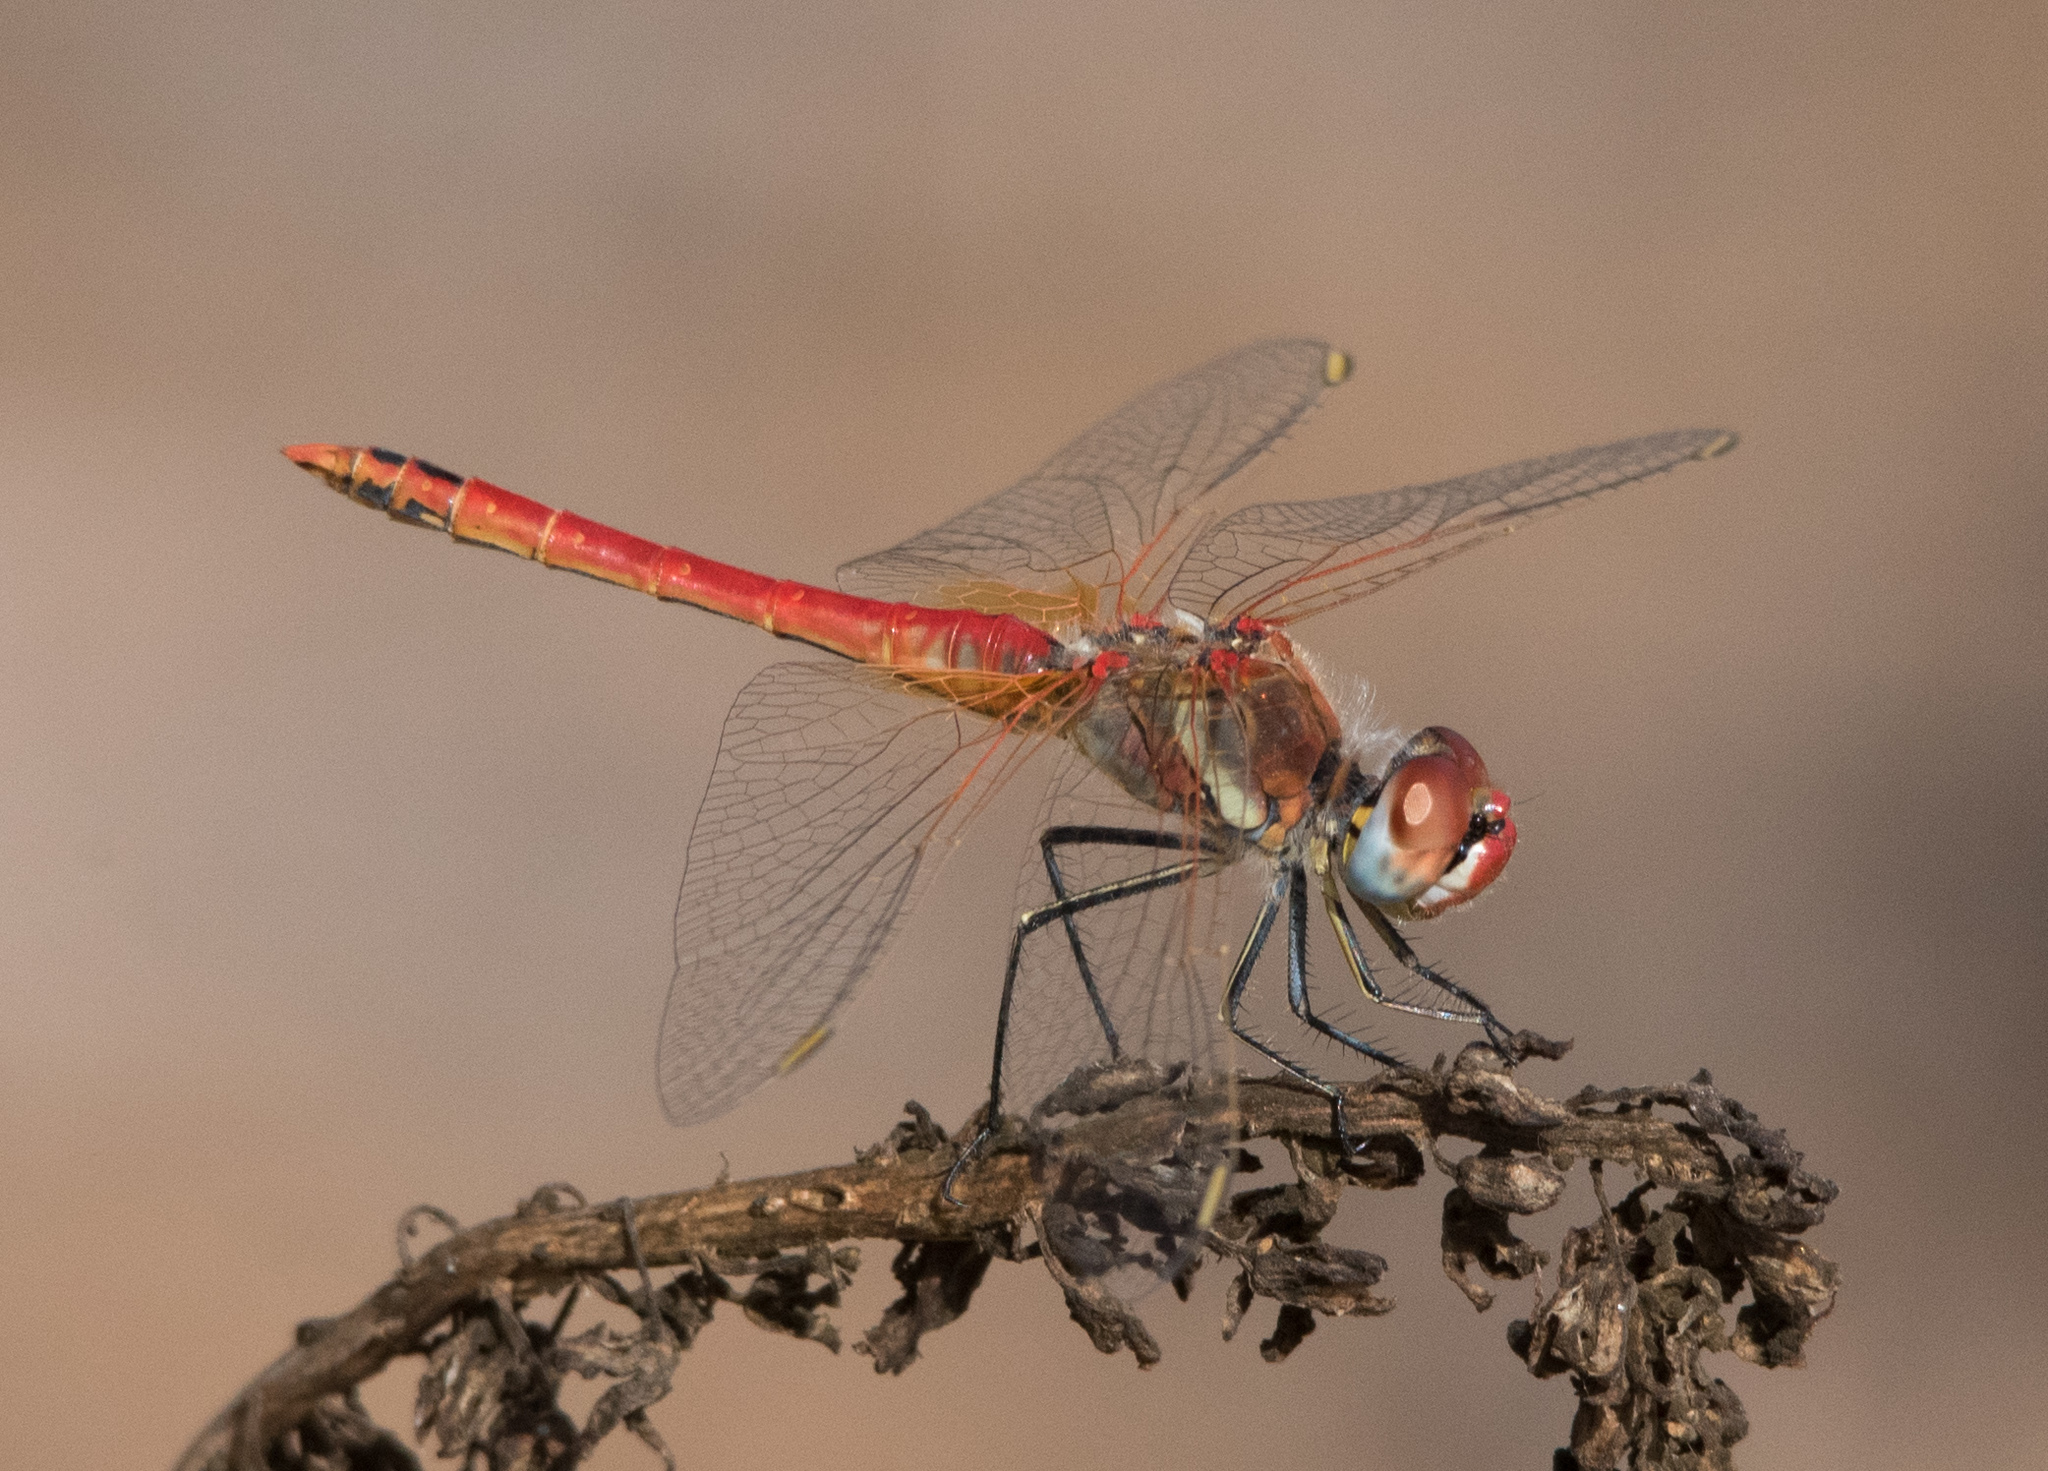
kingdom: Animalia
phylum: Arthropoda
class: Insecta
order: Odonata
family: Libellulidae
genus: Sympetrum
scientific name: Sympetrum fonscolombii
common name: Red-veined darter
